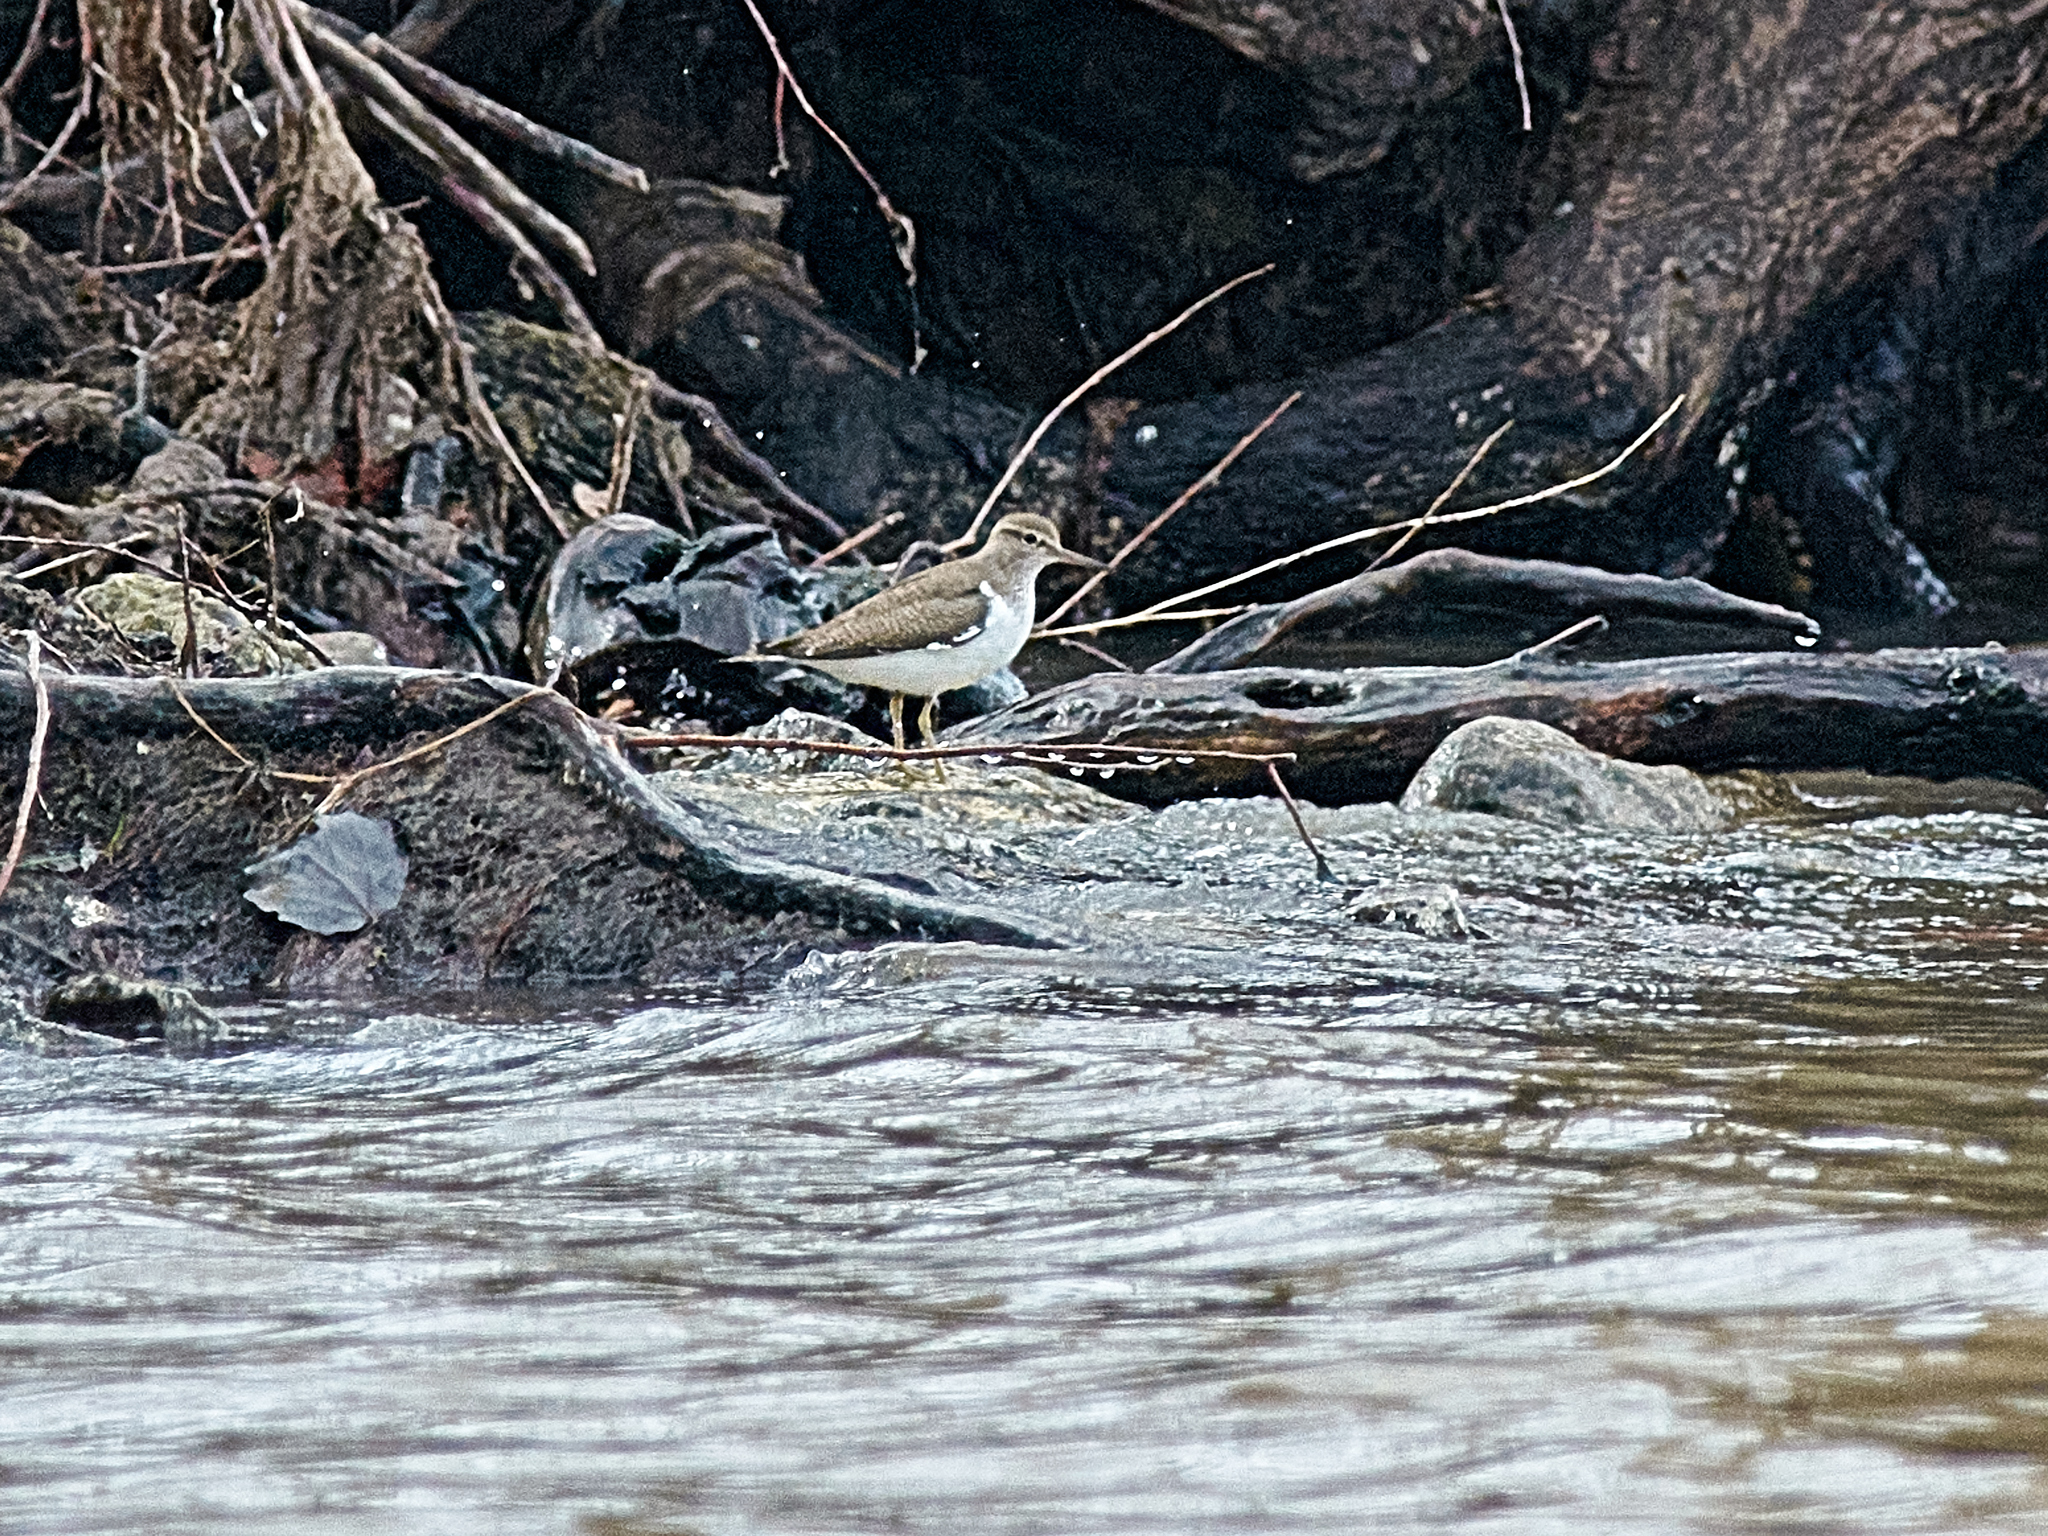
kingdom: Animalia
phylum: Chordata
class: Aves
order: Charadriiformes
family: Scolopacidae
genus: Actitis
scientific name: Actitis hypoleucos
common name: Common sandpiper
